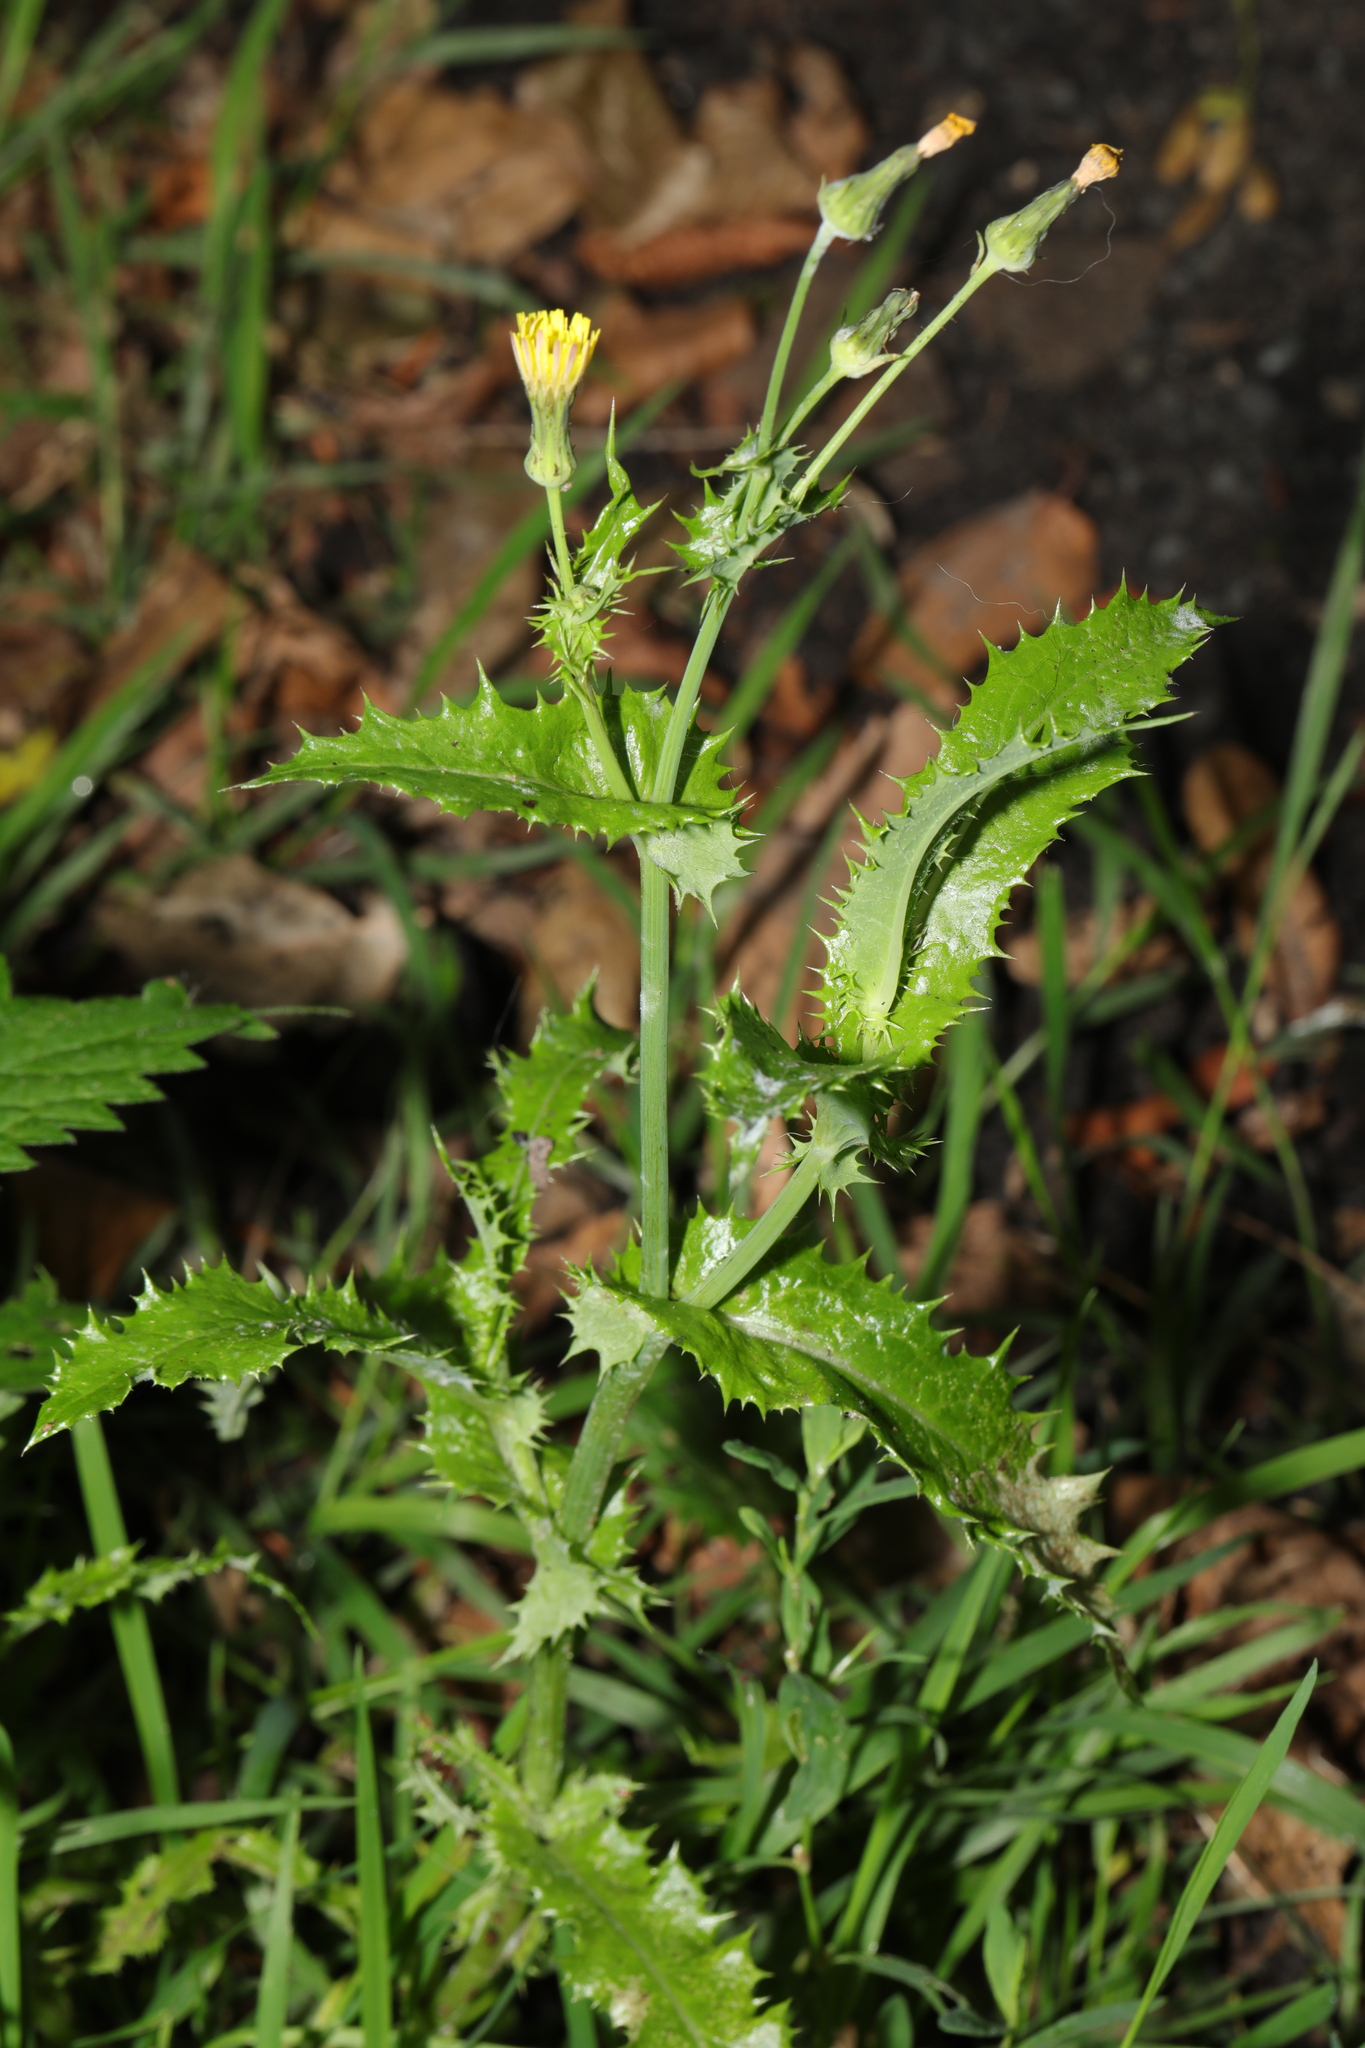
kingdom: Plantae
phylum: Tracheophyta
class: Magnoliopsida
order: Asterales
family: Asteraceae
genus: Sonchus
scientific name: Sonchus asper
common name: Prickly sow-thistle
